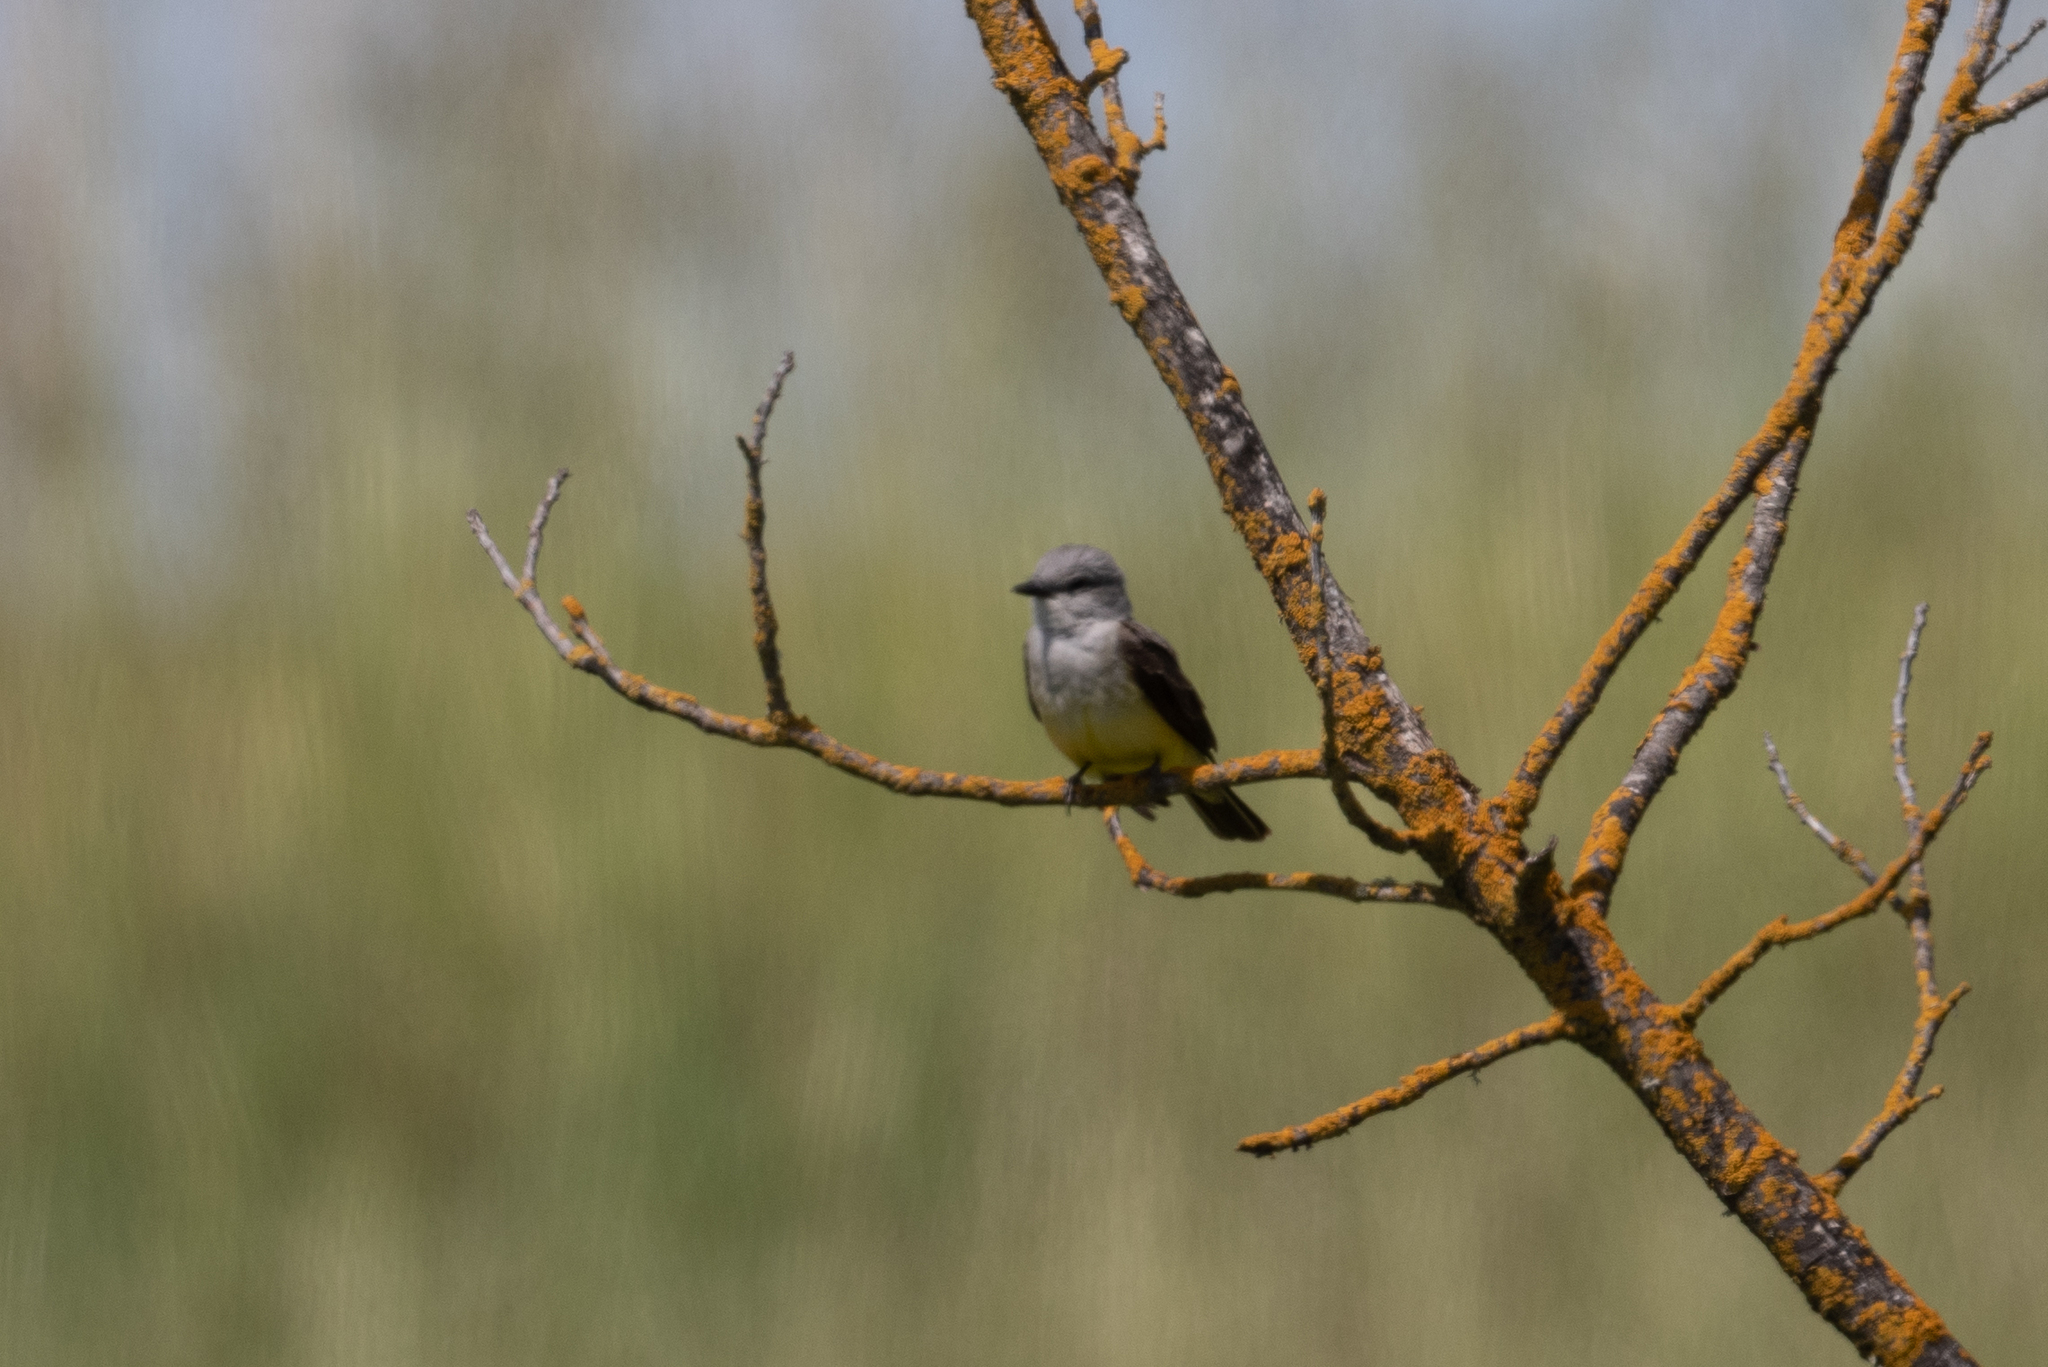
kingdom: Animalia
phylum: Chordata
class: Aves
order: Passeriformes
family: Tyrannidae
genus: Tyrannus
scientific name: Tyrannus verticalis
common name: Western kingbird
